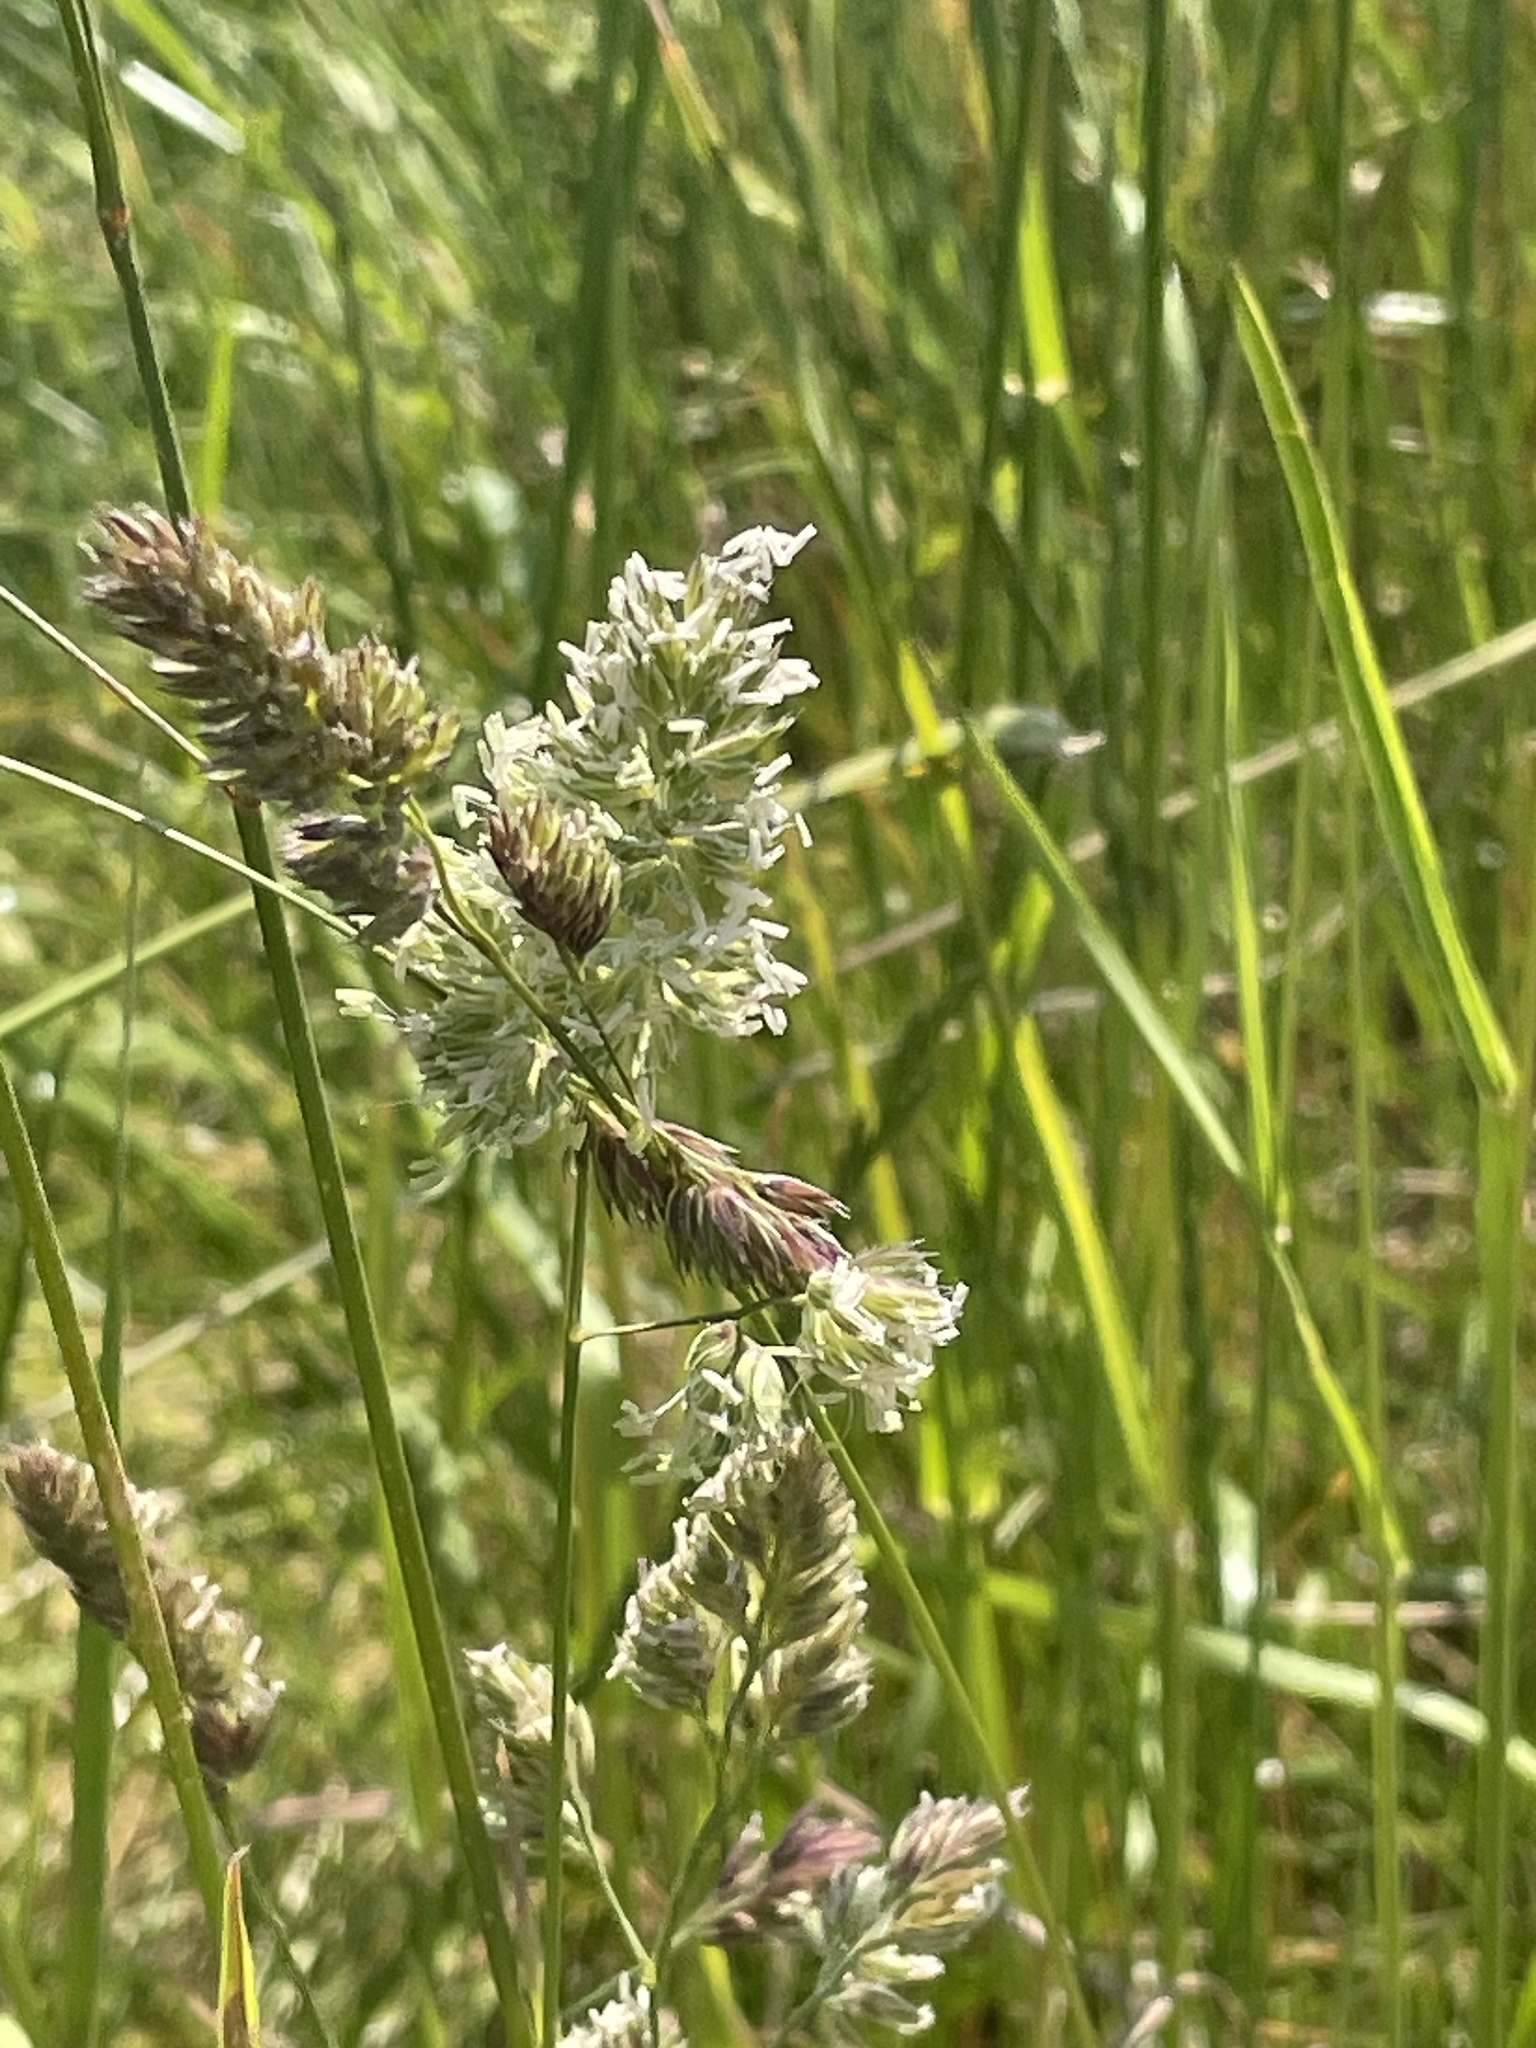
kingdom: Plantae
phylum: Tracheophyta
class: Liliopsida
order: Poales
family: Poaceae
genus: Dactylis
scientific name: Dactylis glomerata
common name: Orchardgrass
